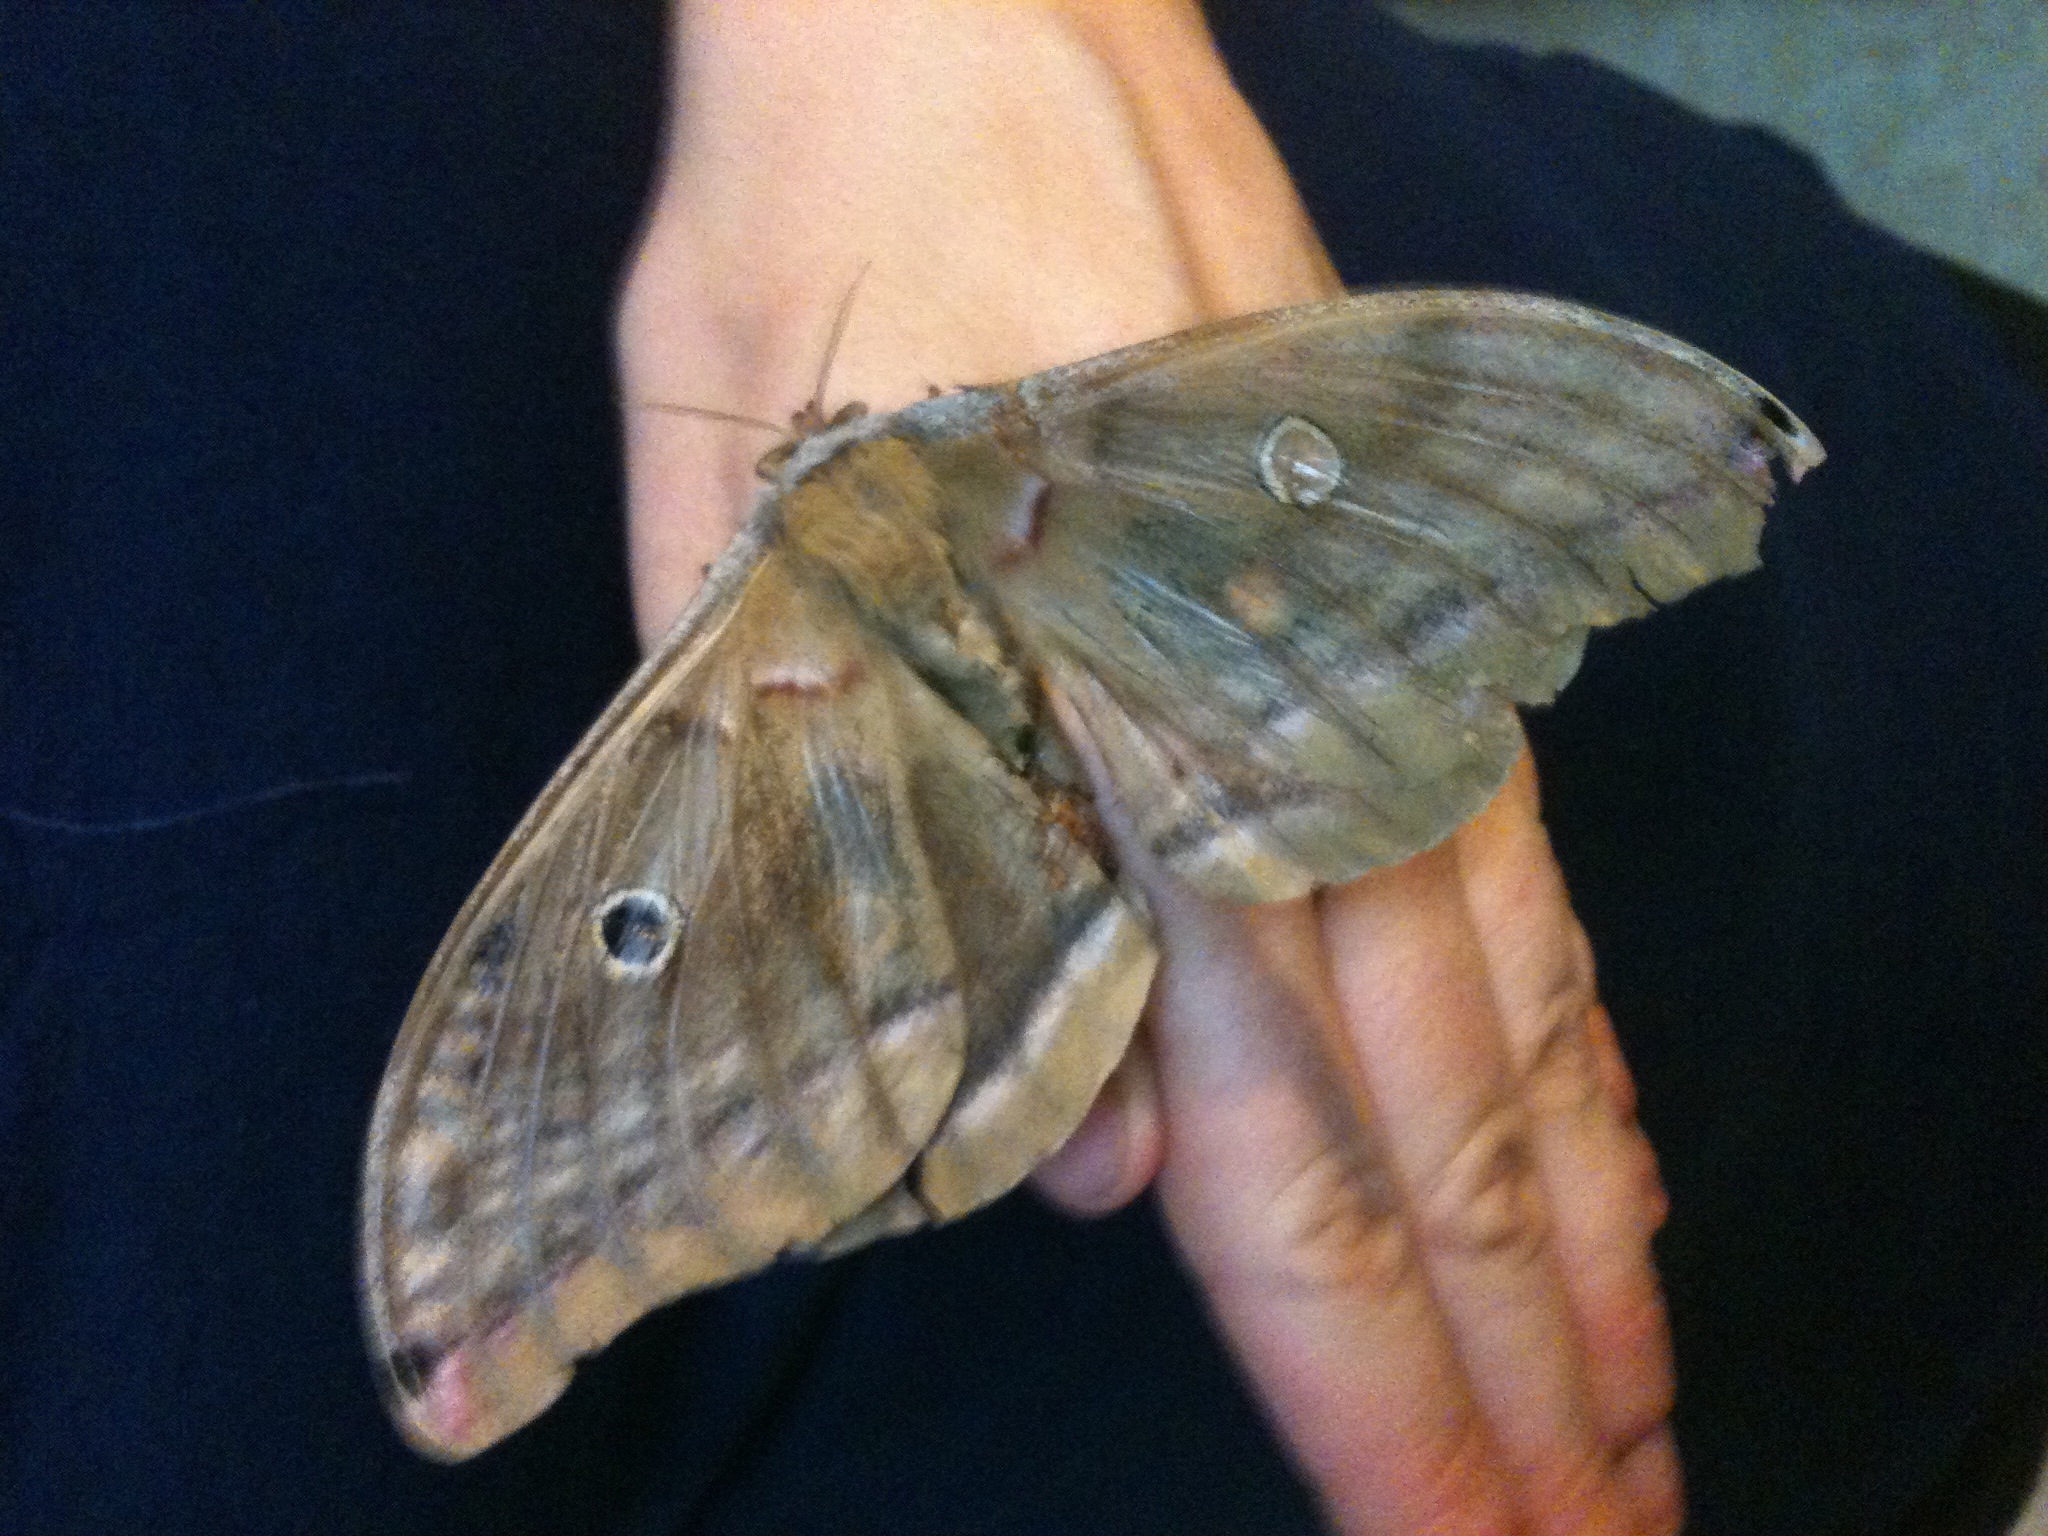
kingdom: Animalia
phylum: Arthropoda
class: Insecta
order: Lepidoptera
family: Saturniidae
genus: Antheraea
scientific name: Antheraea polyphemus
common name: Polyphemus moth
